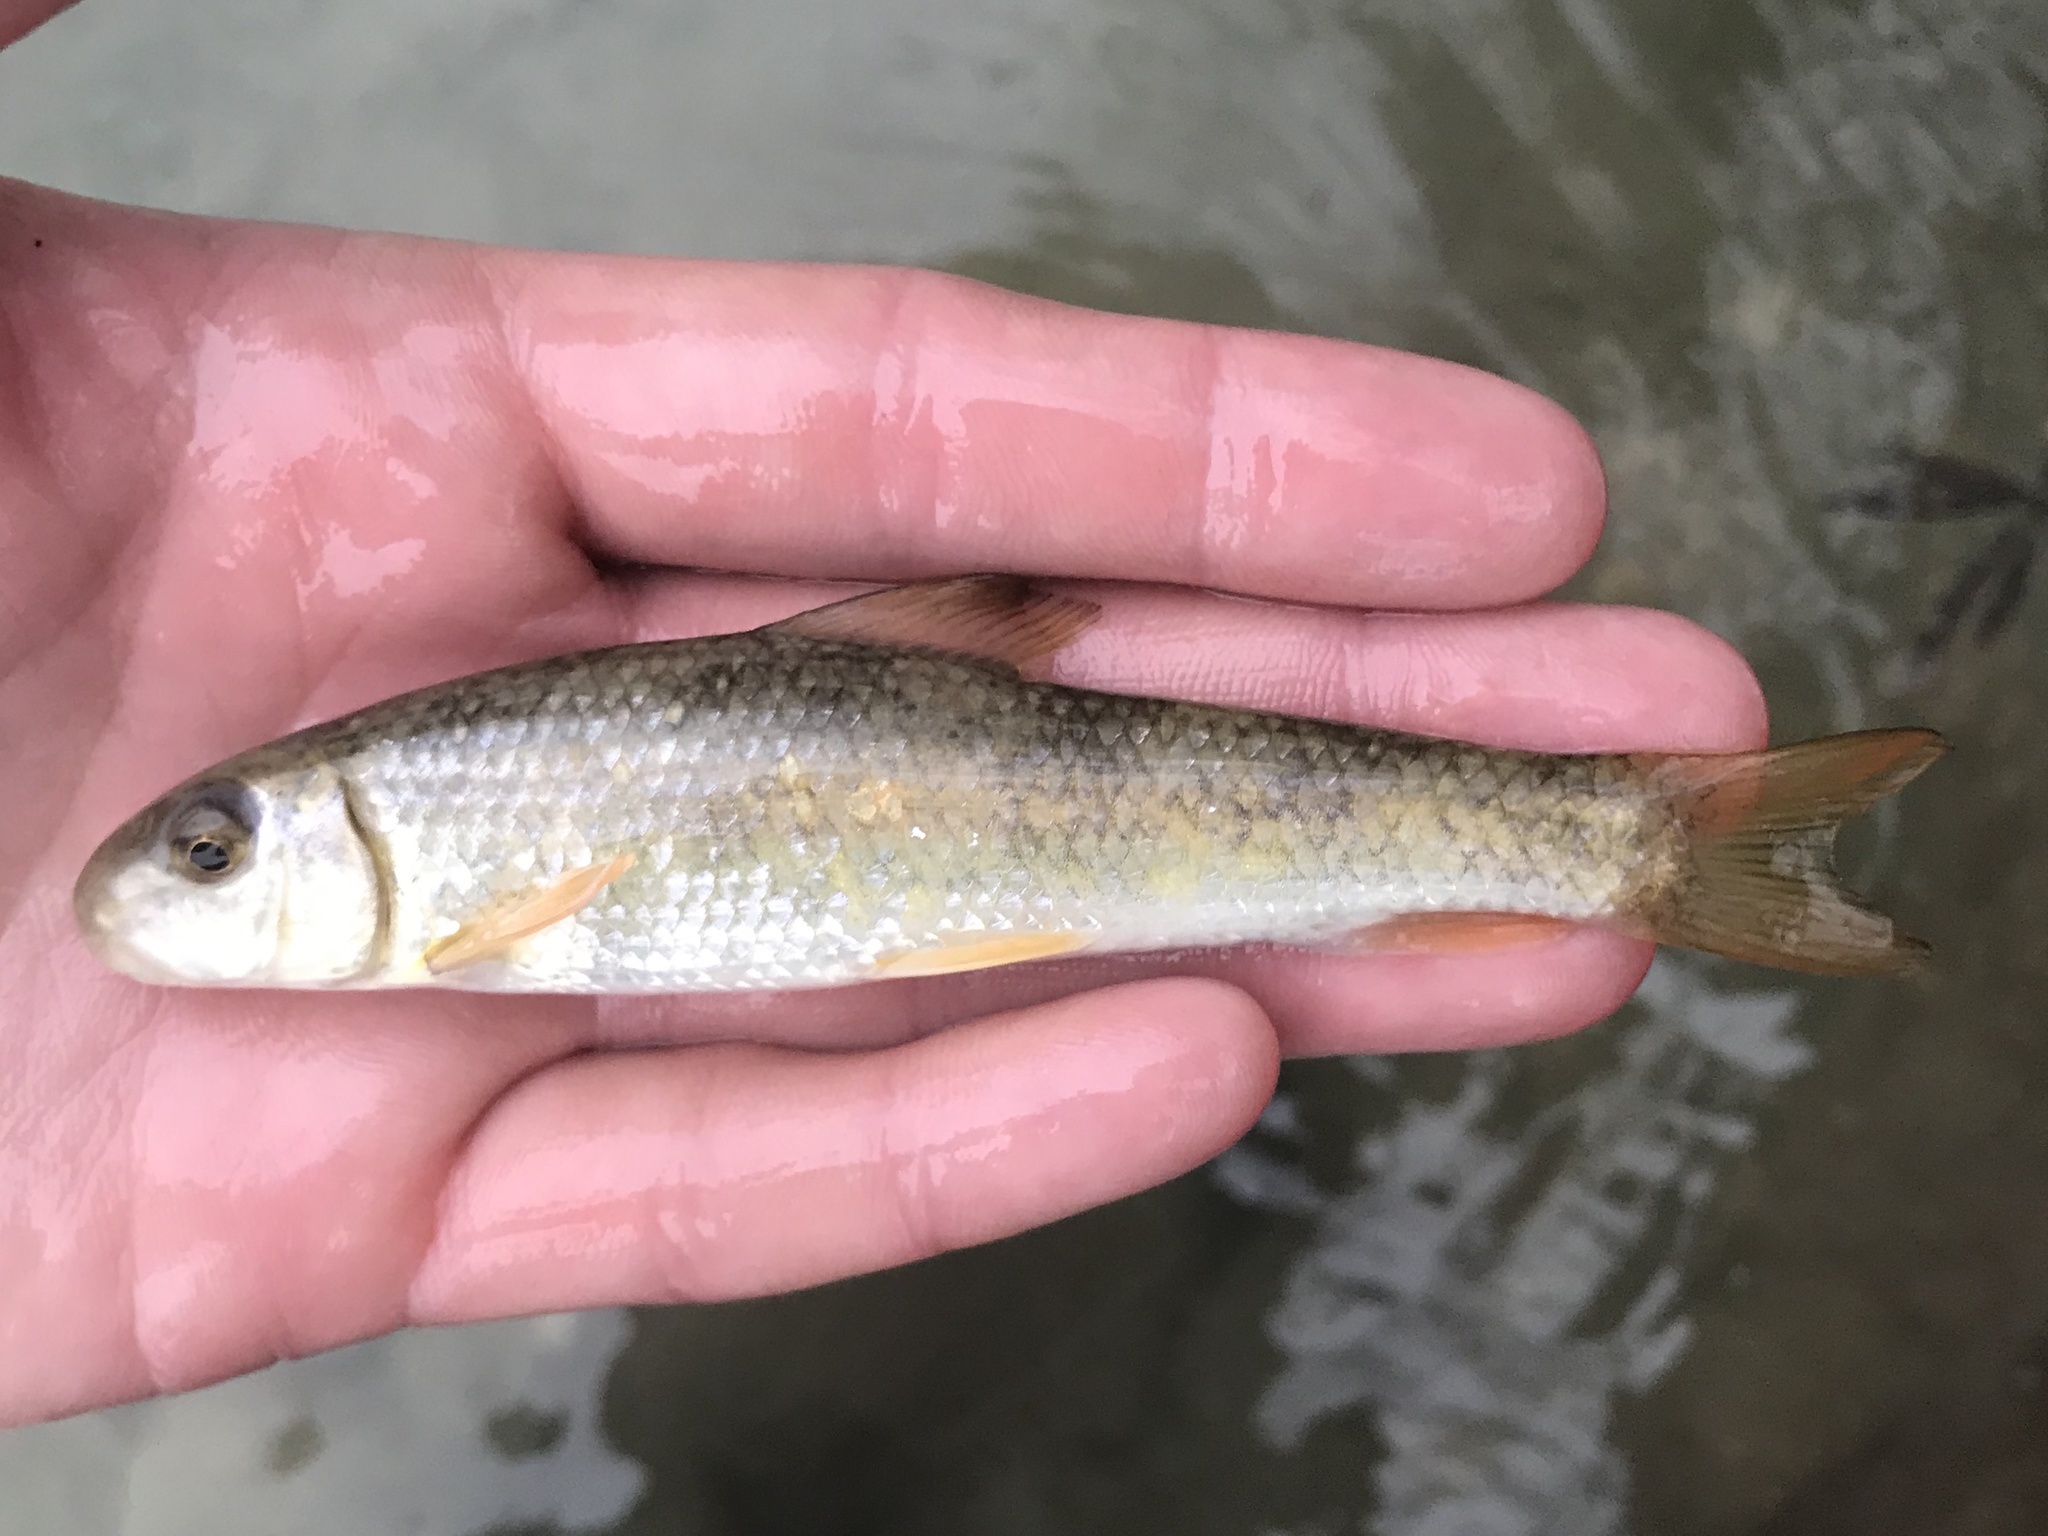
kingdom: Animalia
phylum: Chordata
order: Cypriniformes
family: Catostomidae
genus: Moxostoma
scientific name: Moxostoma congestum
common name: Gray redhorse
